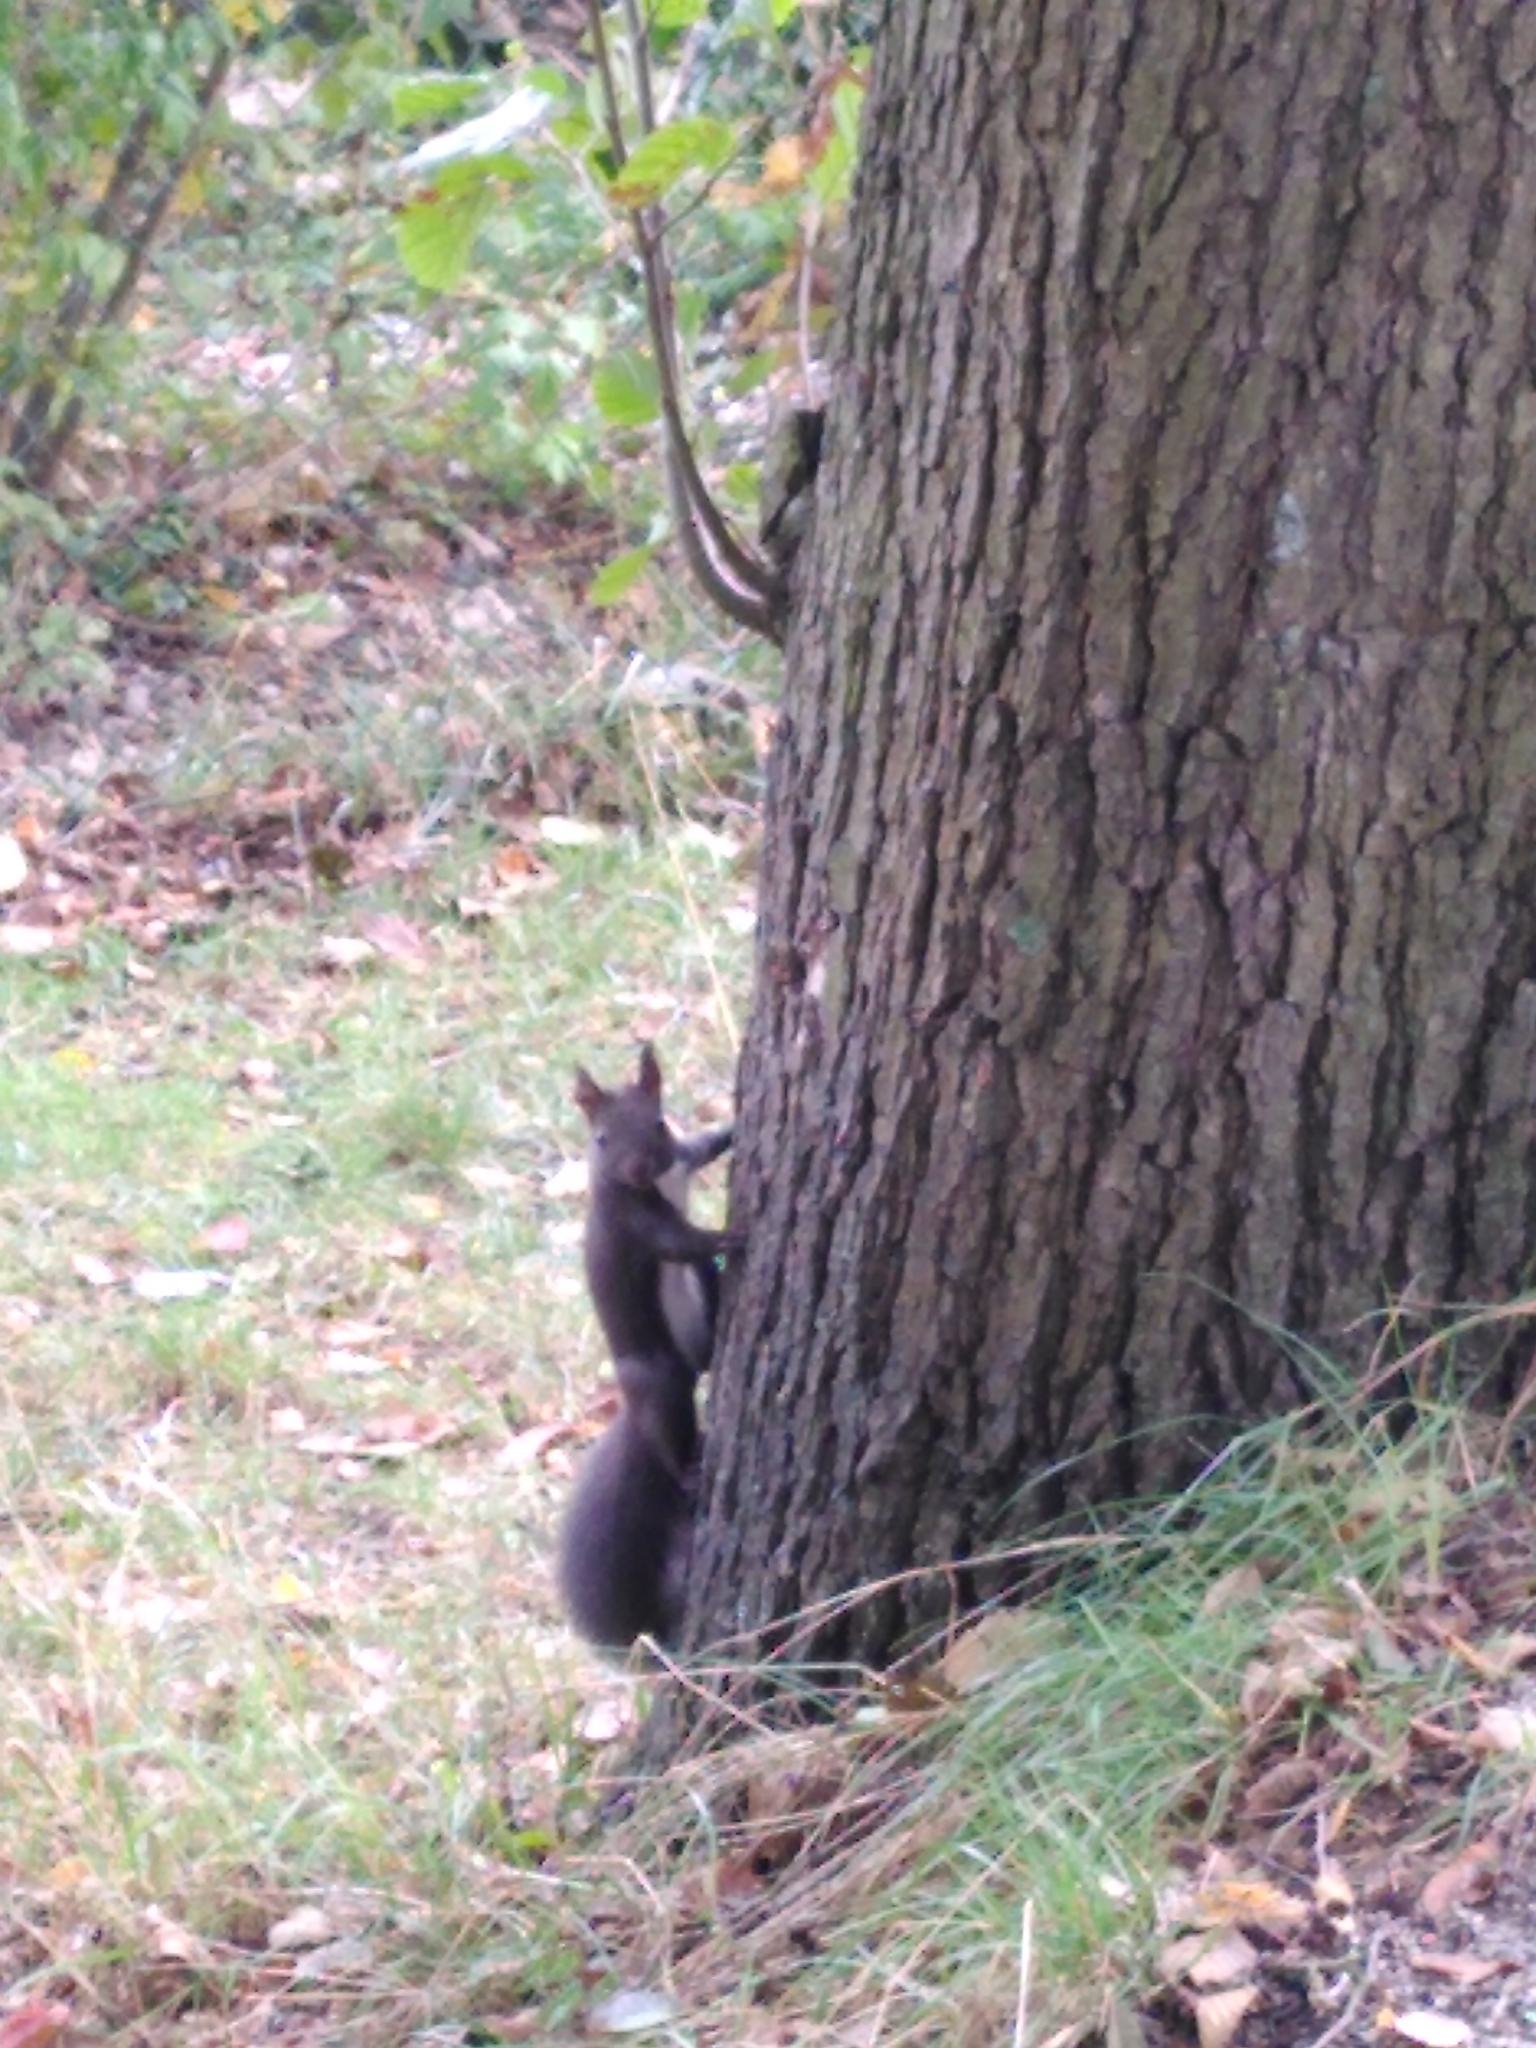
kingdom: Animalia
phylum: Chordata
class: Mammalia
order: Rodentia
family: Sciuridae
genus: Sciurus
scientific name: Sciurus vulgaris
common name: Eurasian red squirrel
